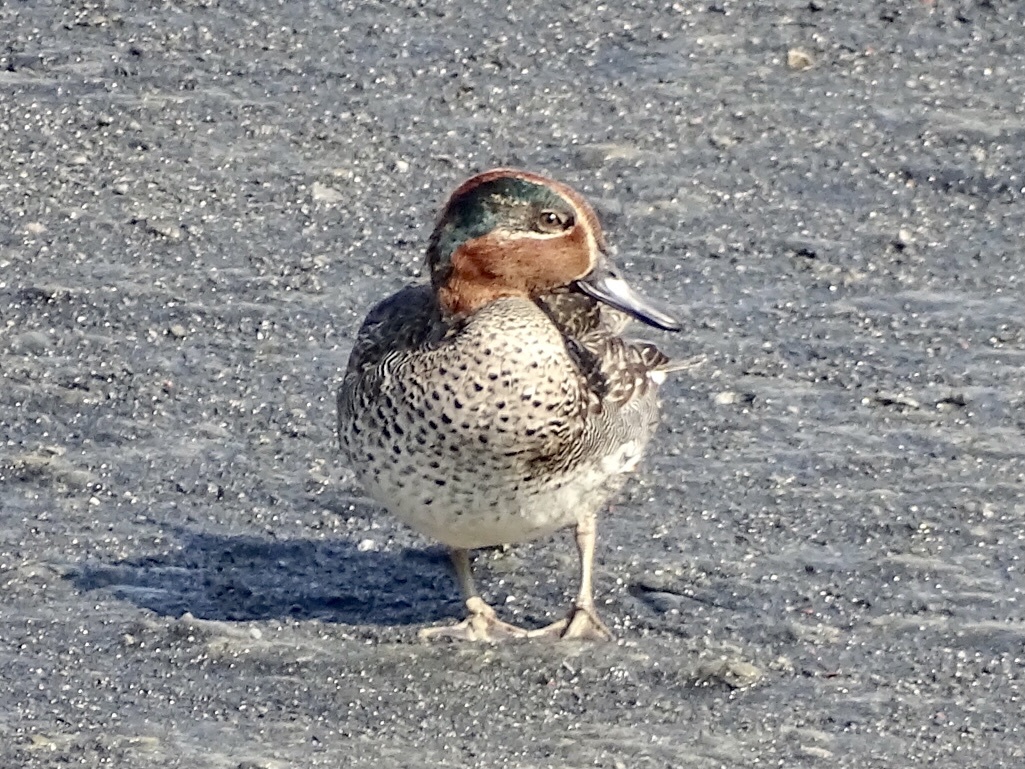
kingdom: Animalia
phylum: Chordata
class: Aves
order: Anseriformes
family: Anatidae
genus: Anas
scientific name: Anas crecca
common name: Eurasian teal
